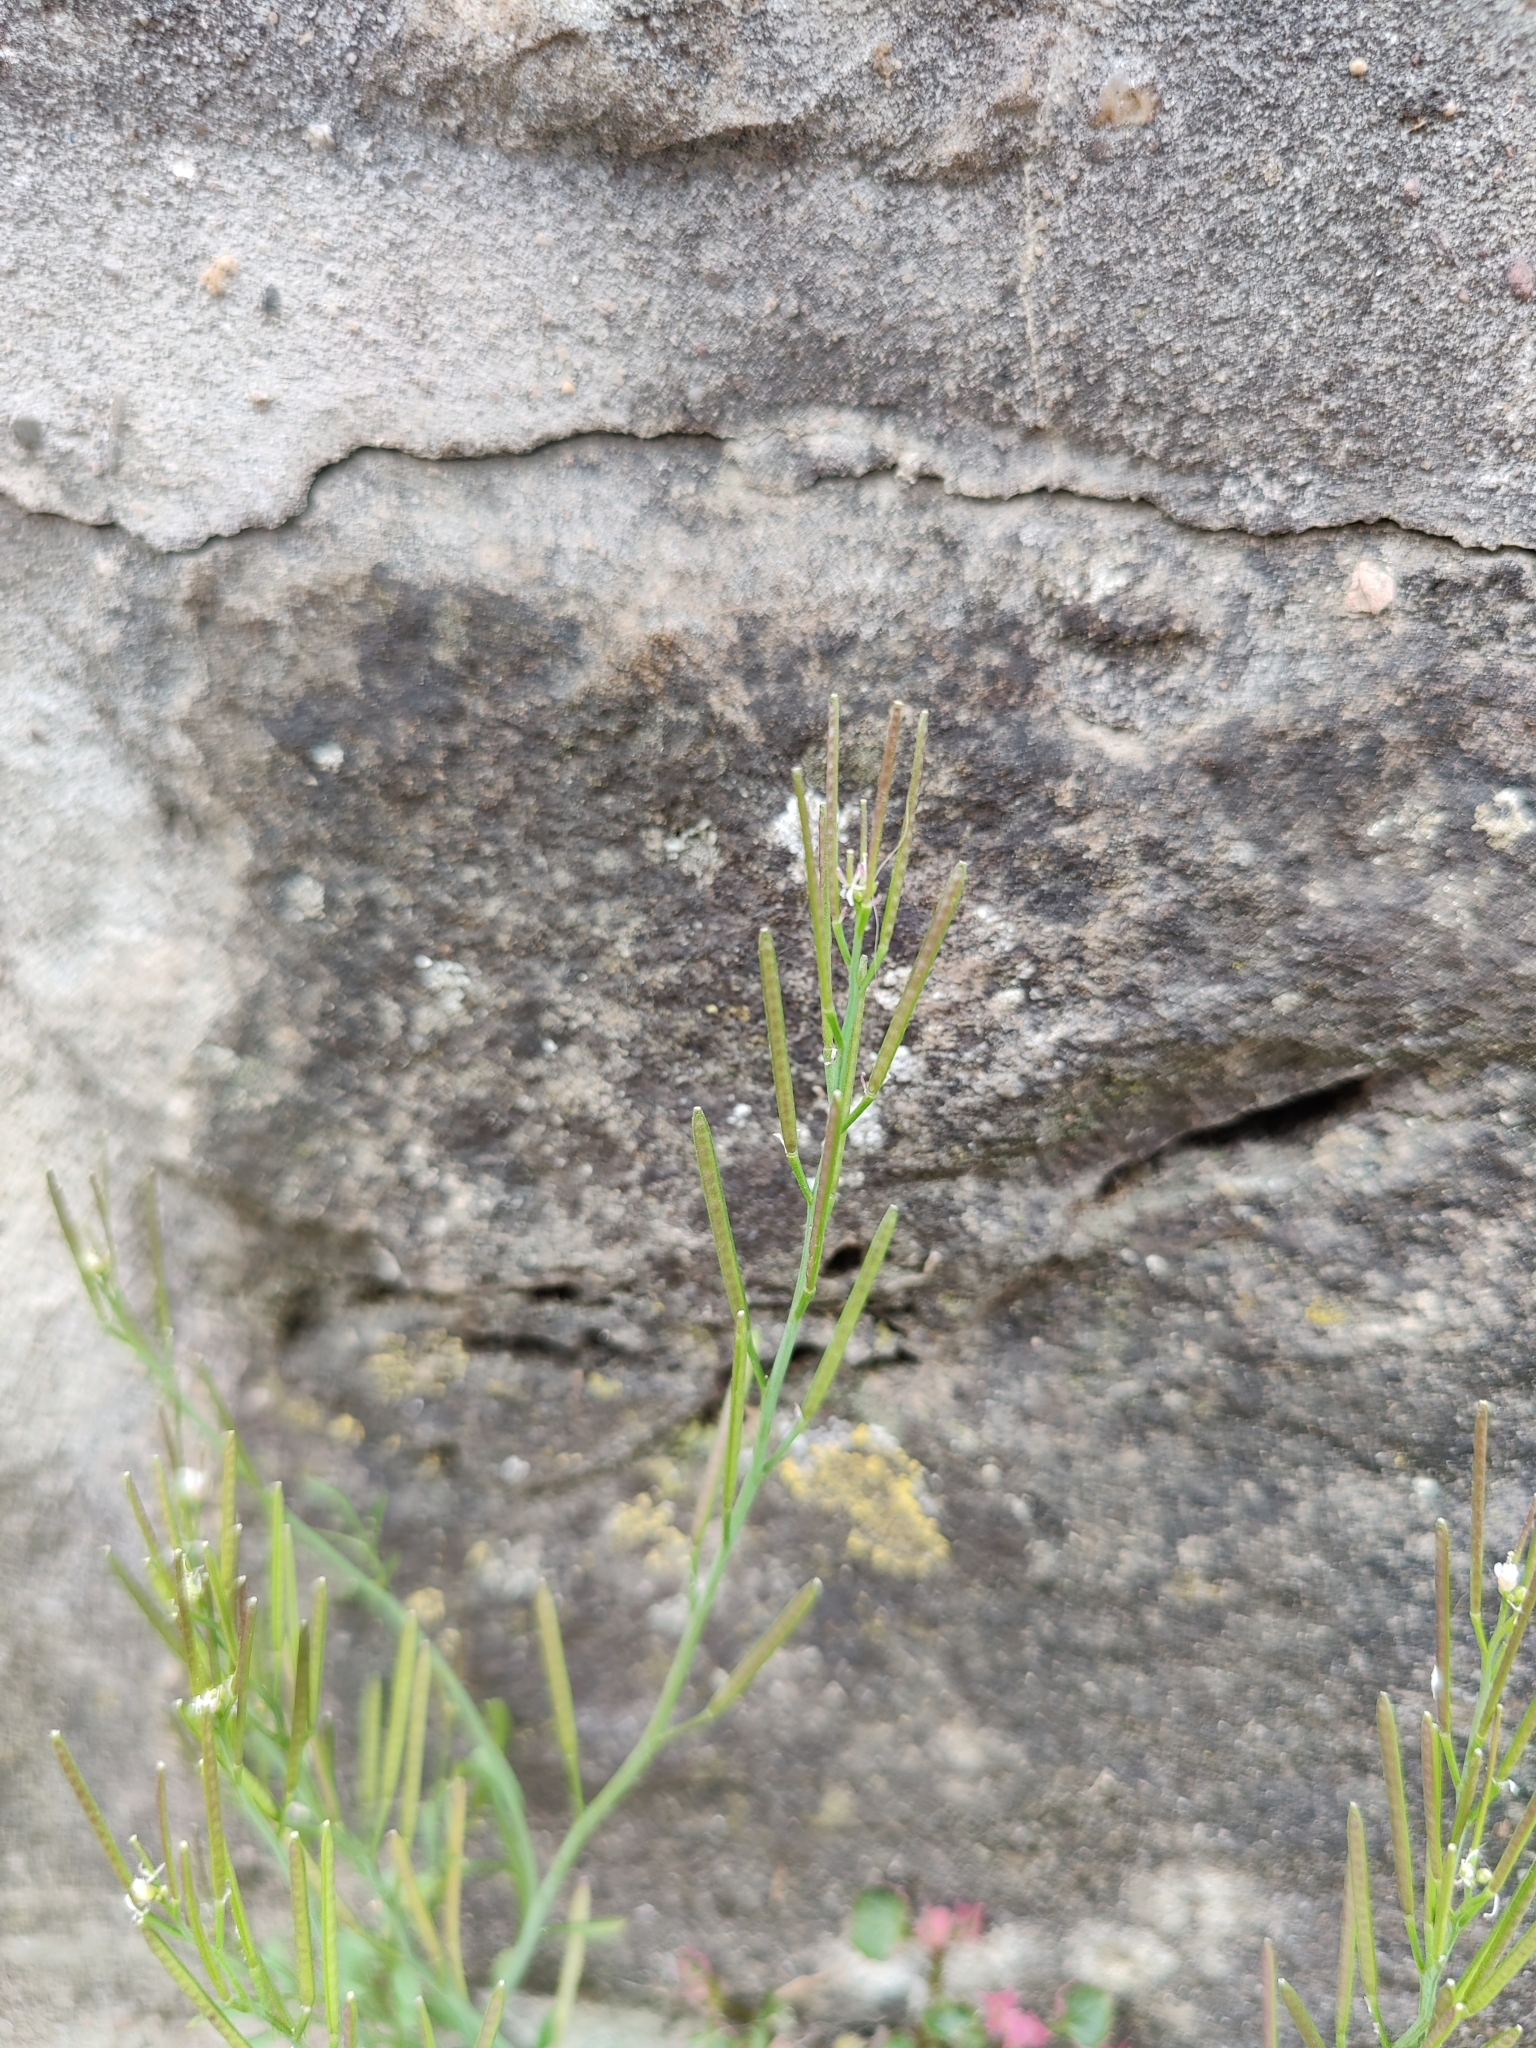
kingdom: Plantae
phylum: Tracheophyta
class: Magnoliopsida
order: Brassicales
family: Brassicaceae
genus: Cardamine
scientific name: Cardamine hirsuta
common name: Hairy bittercress
